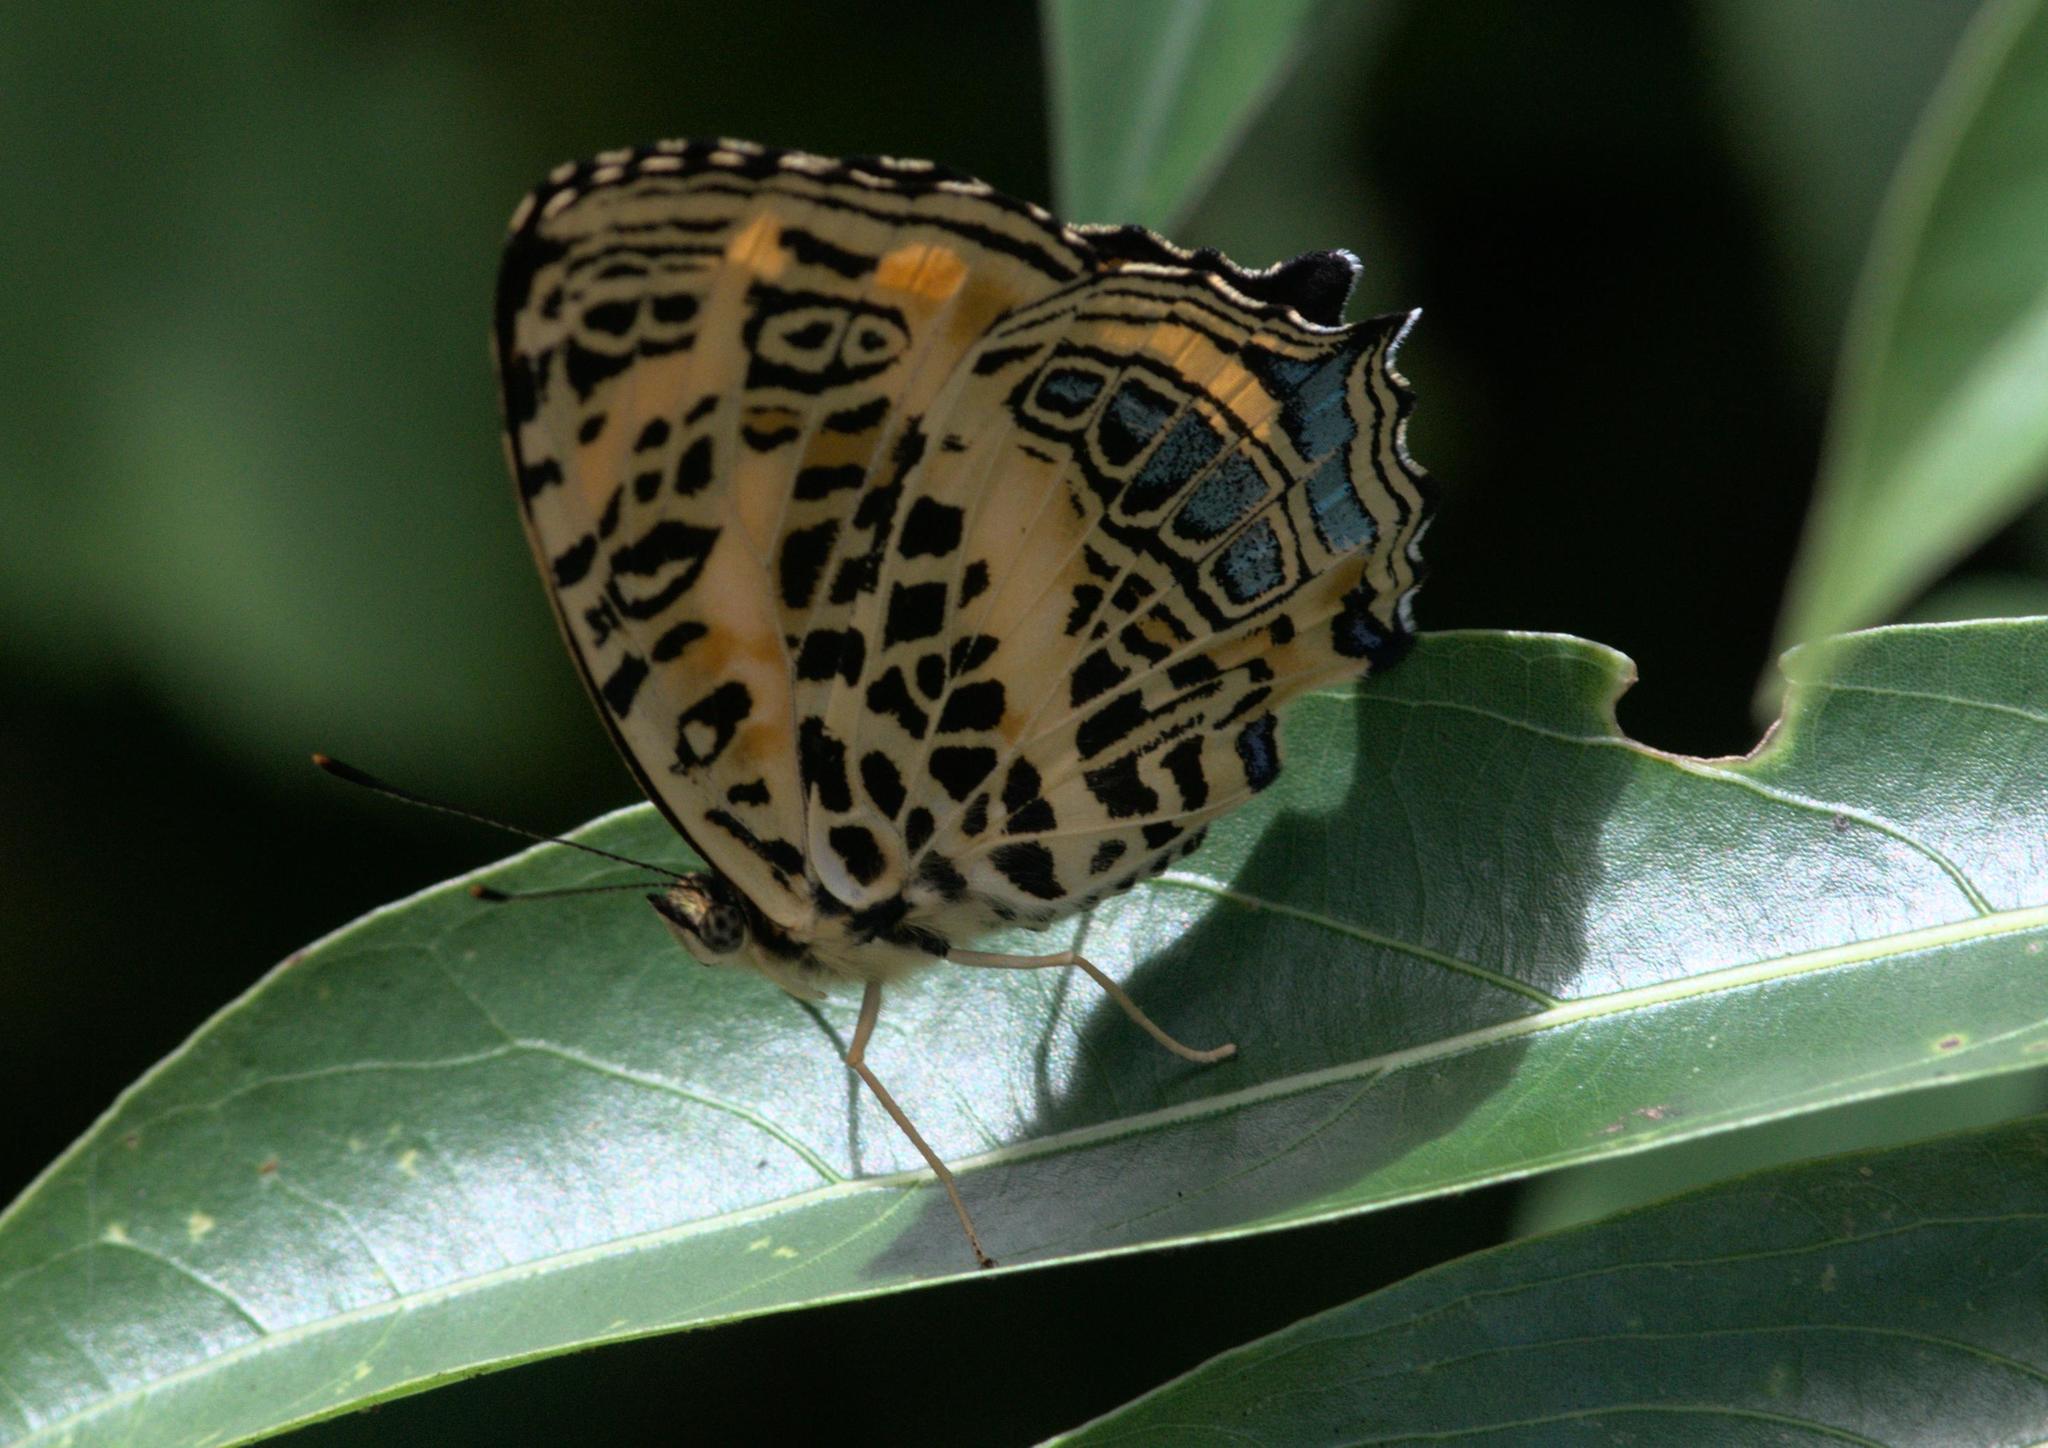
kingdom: Animalia
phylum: Arthropoda
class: Insecta
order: Lepidoptera
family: Nymphalidae
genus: Symbrenthia
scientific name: Symbrenthia niphanda
